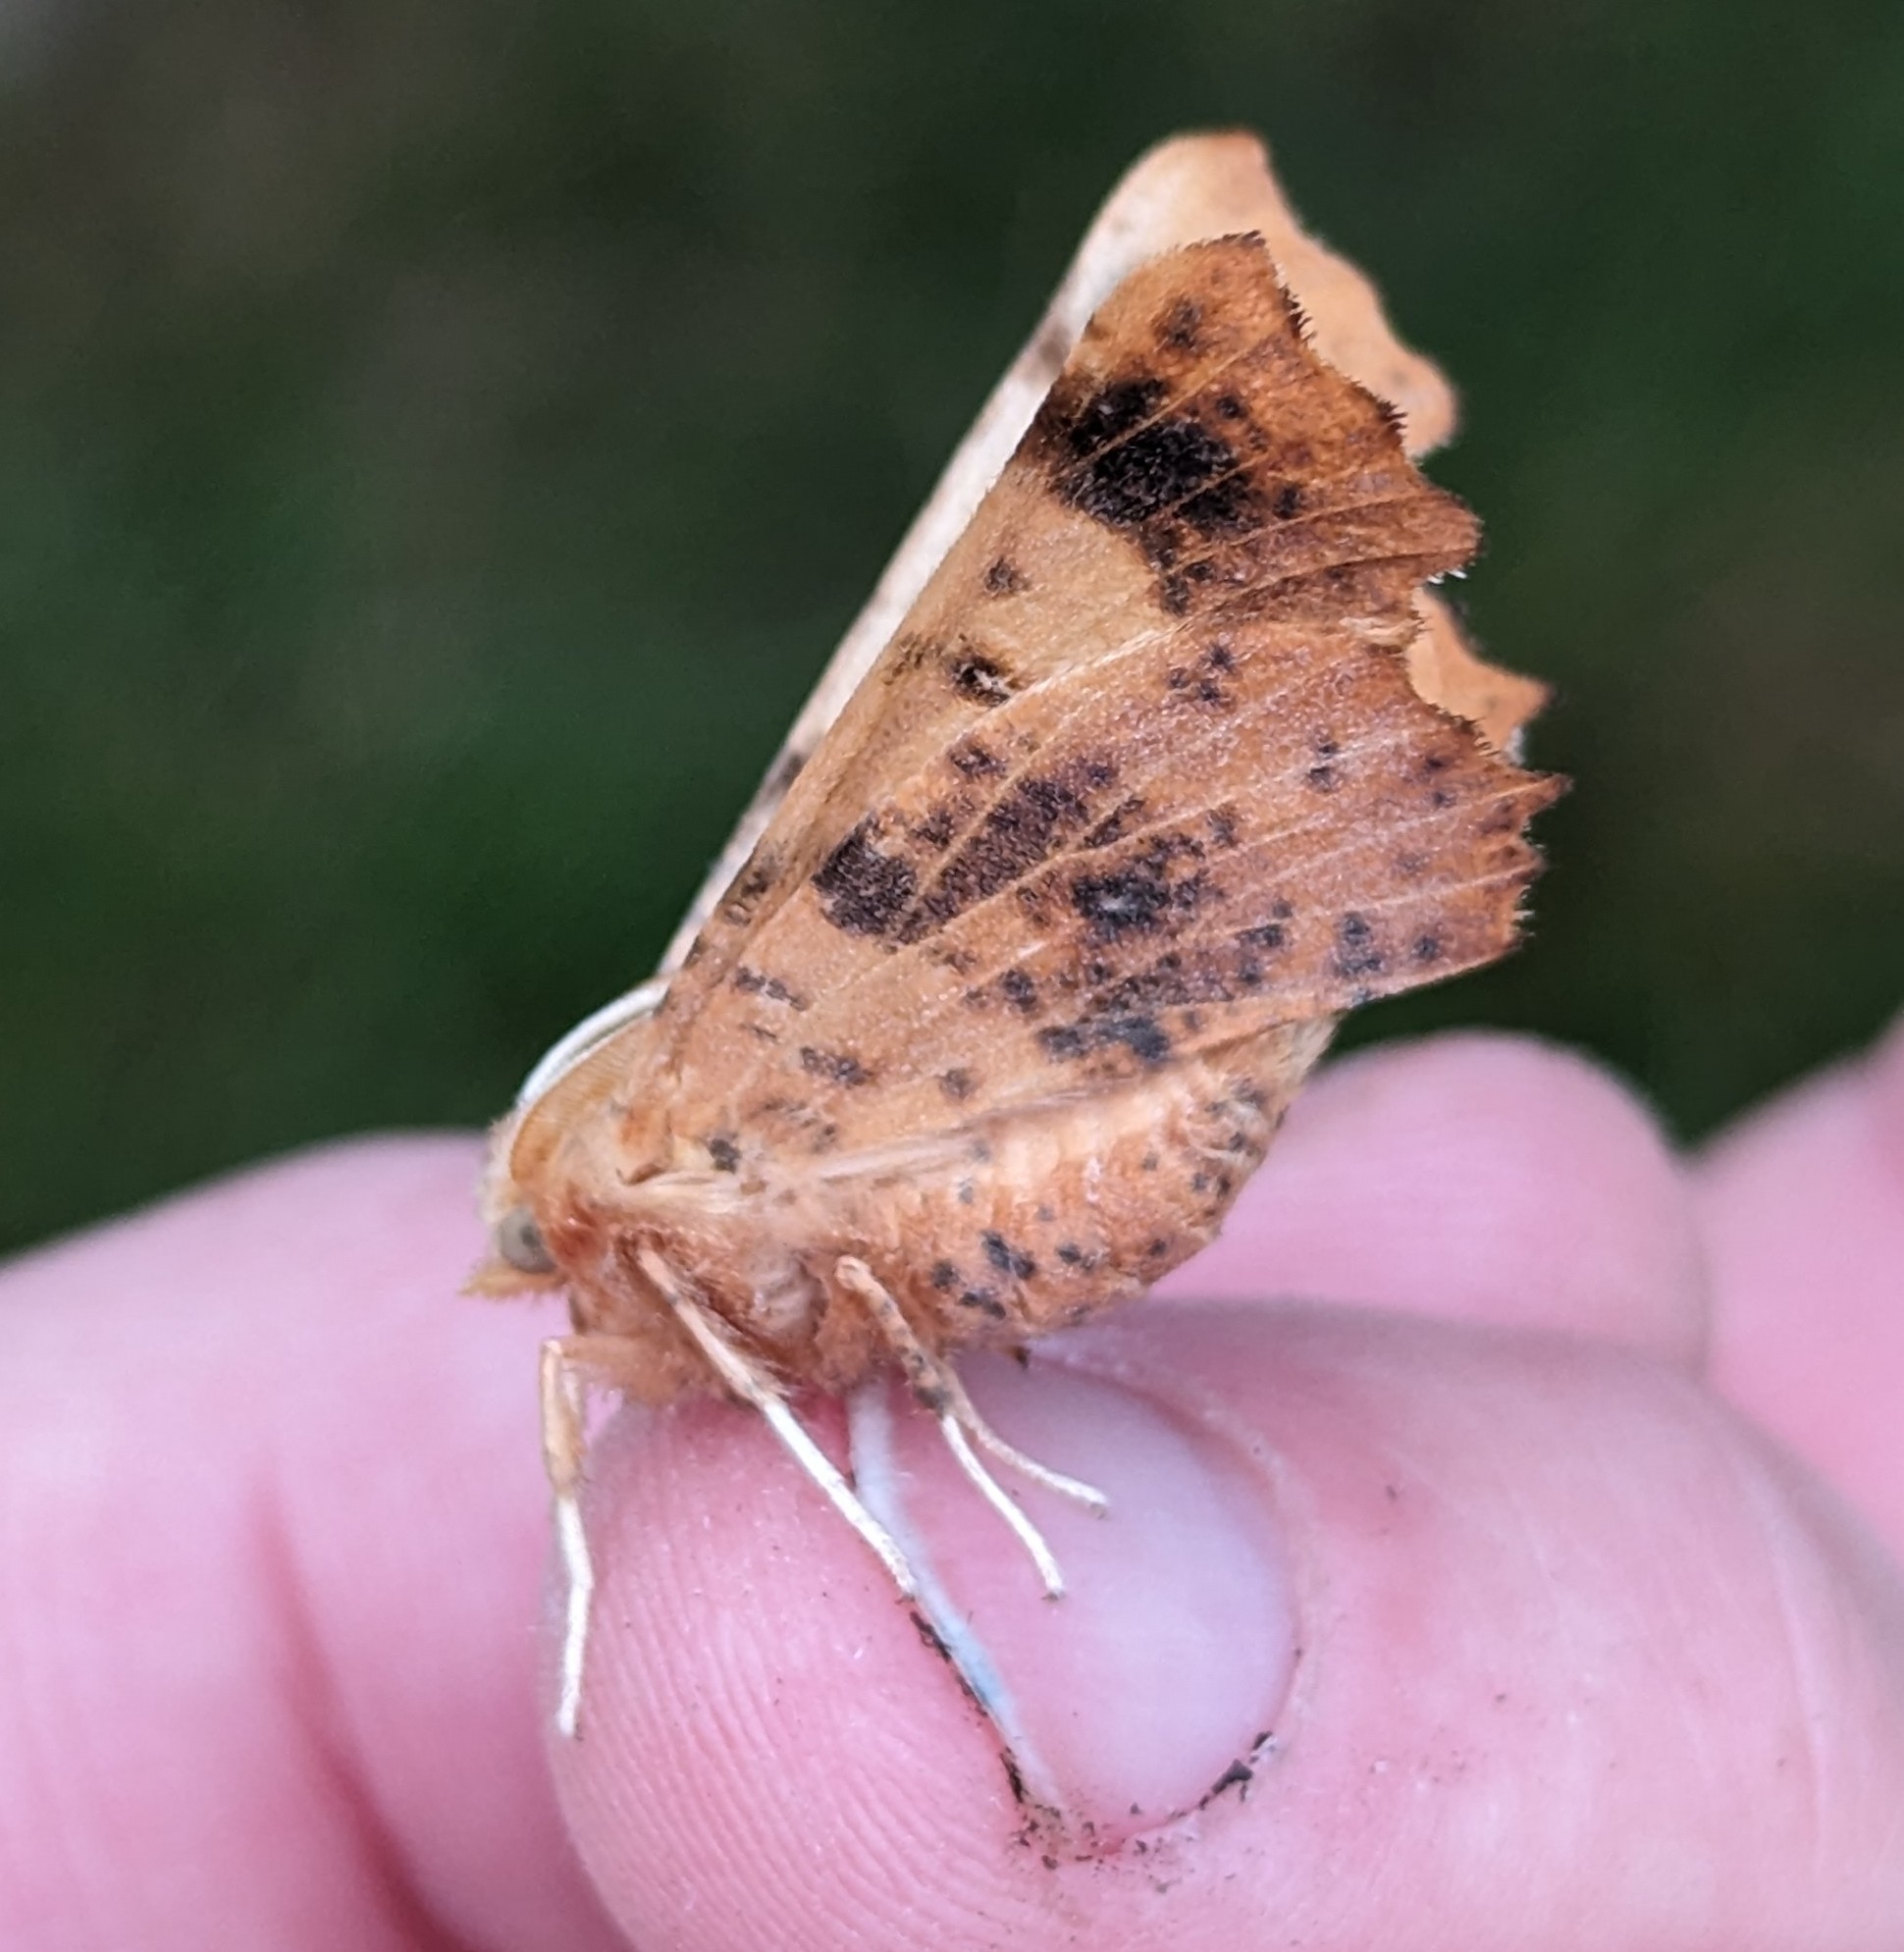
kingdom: Animalia
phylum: Arthropoda
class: Insecta
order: Lepidoptera
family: Geometridae
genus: Ennomos
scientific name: Ennomos magnaria
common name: Maple spanworm
